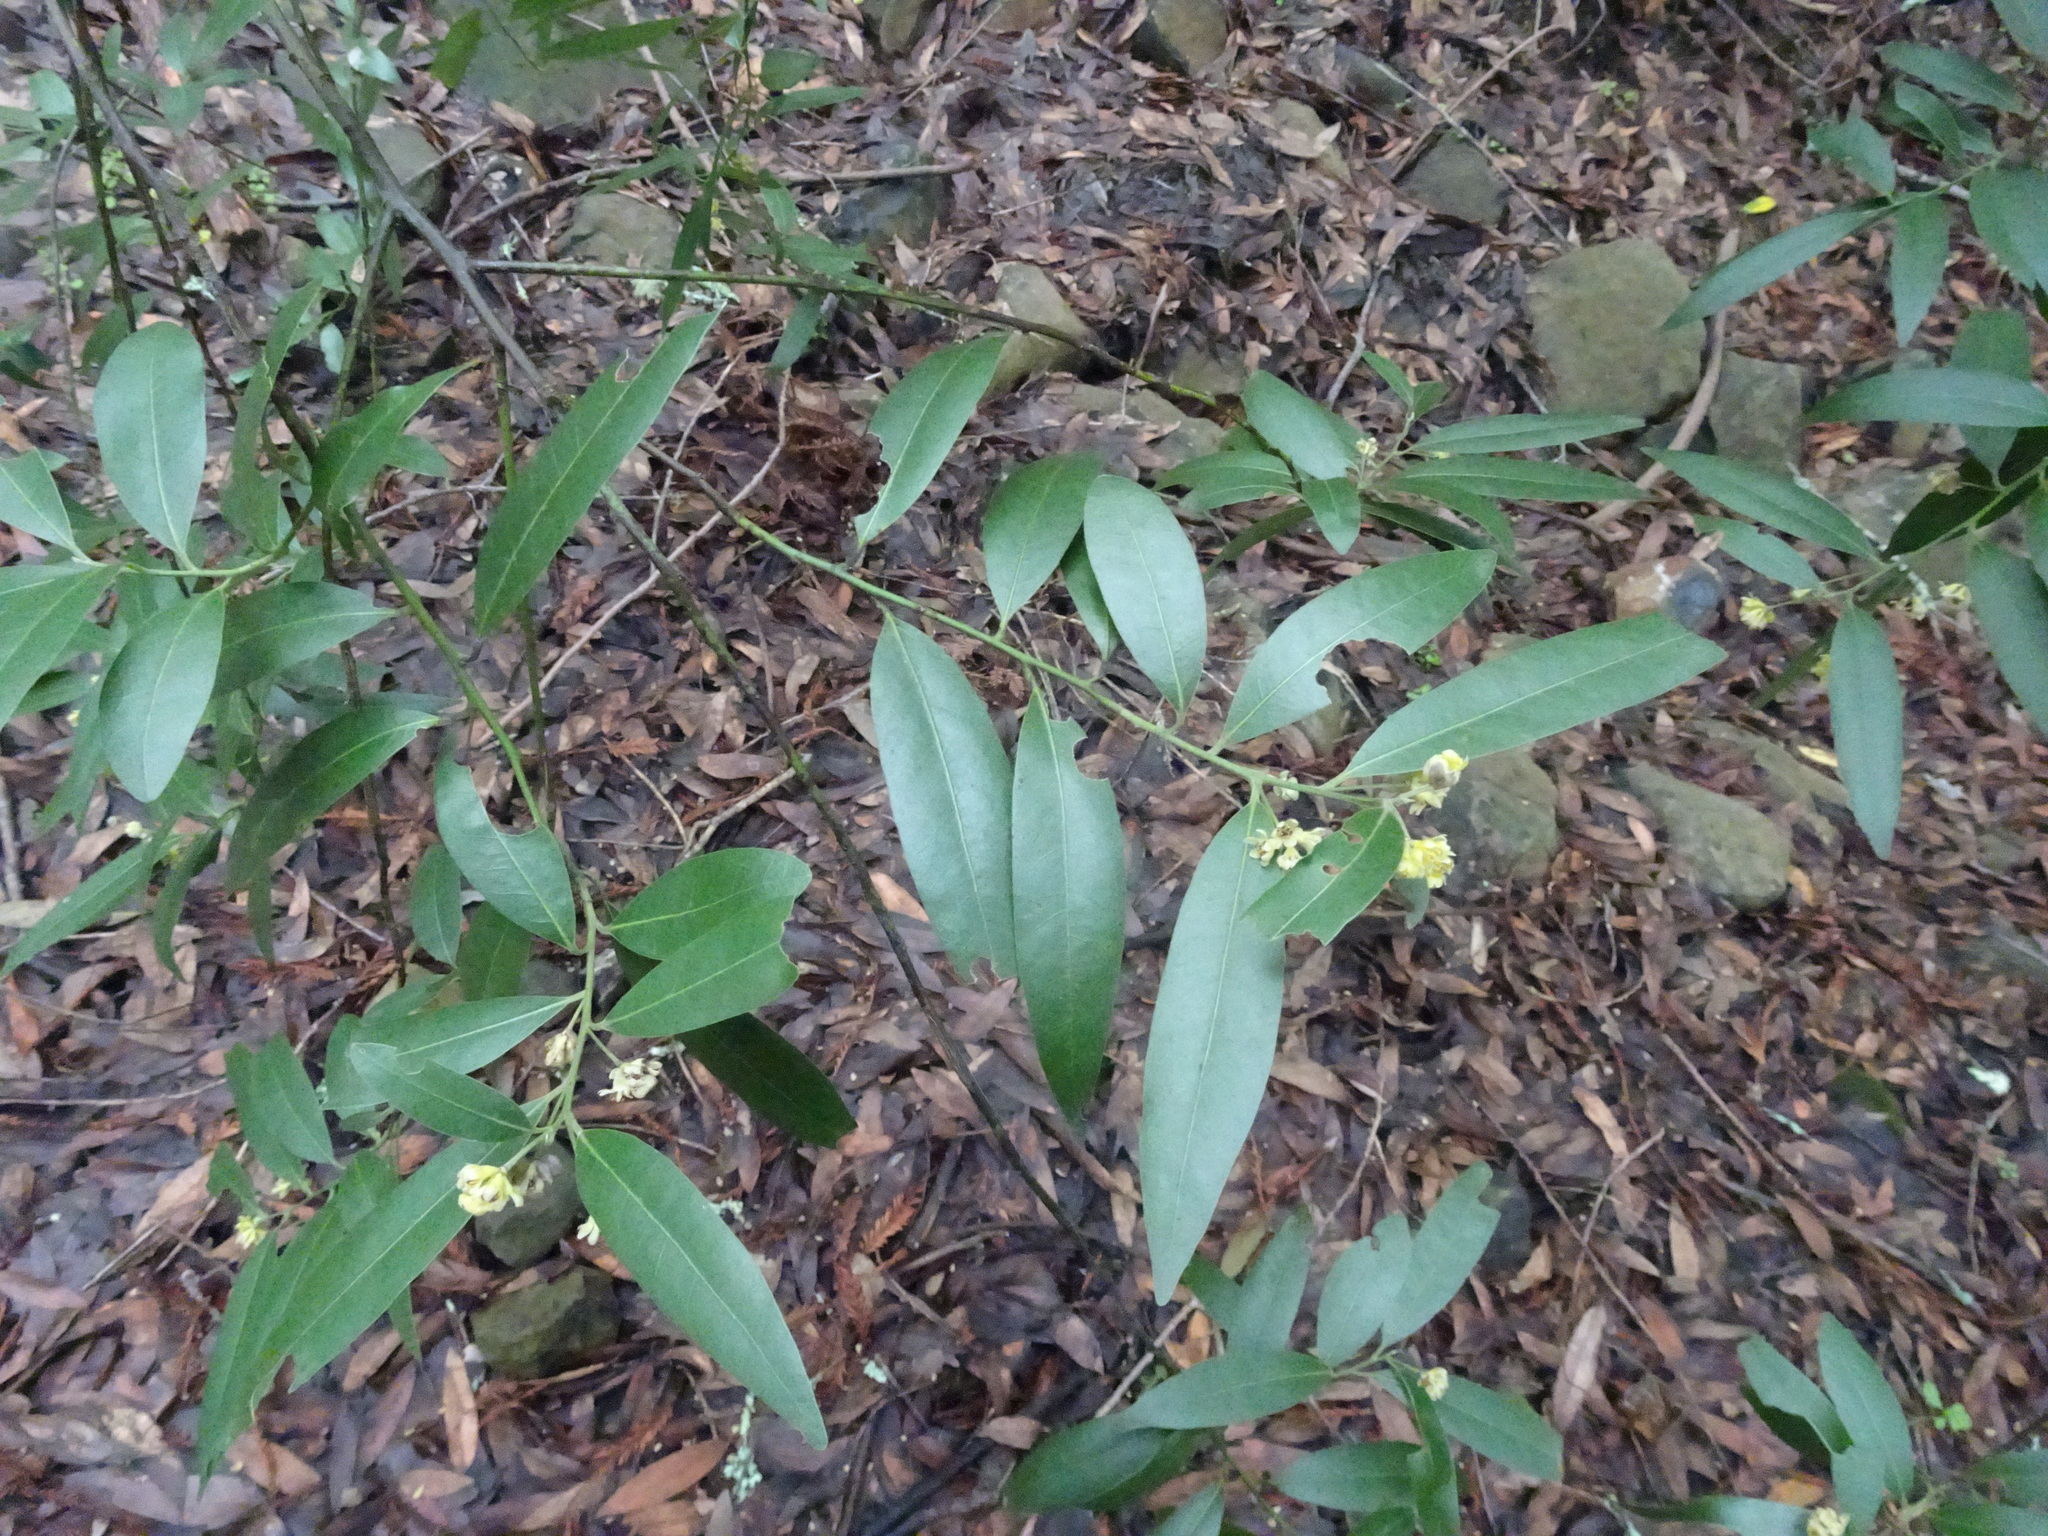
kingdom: Plantae
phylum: Tracheophyta
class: Magnoliopsida
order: Laurales
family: Lauraceae
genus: Umbellularia
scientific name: Umbellularia californica
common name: California bay
